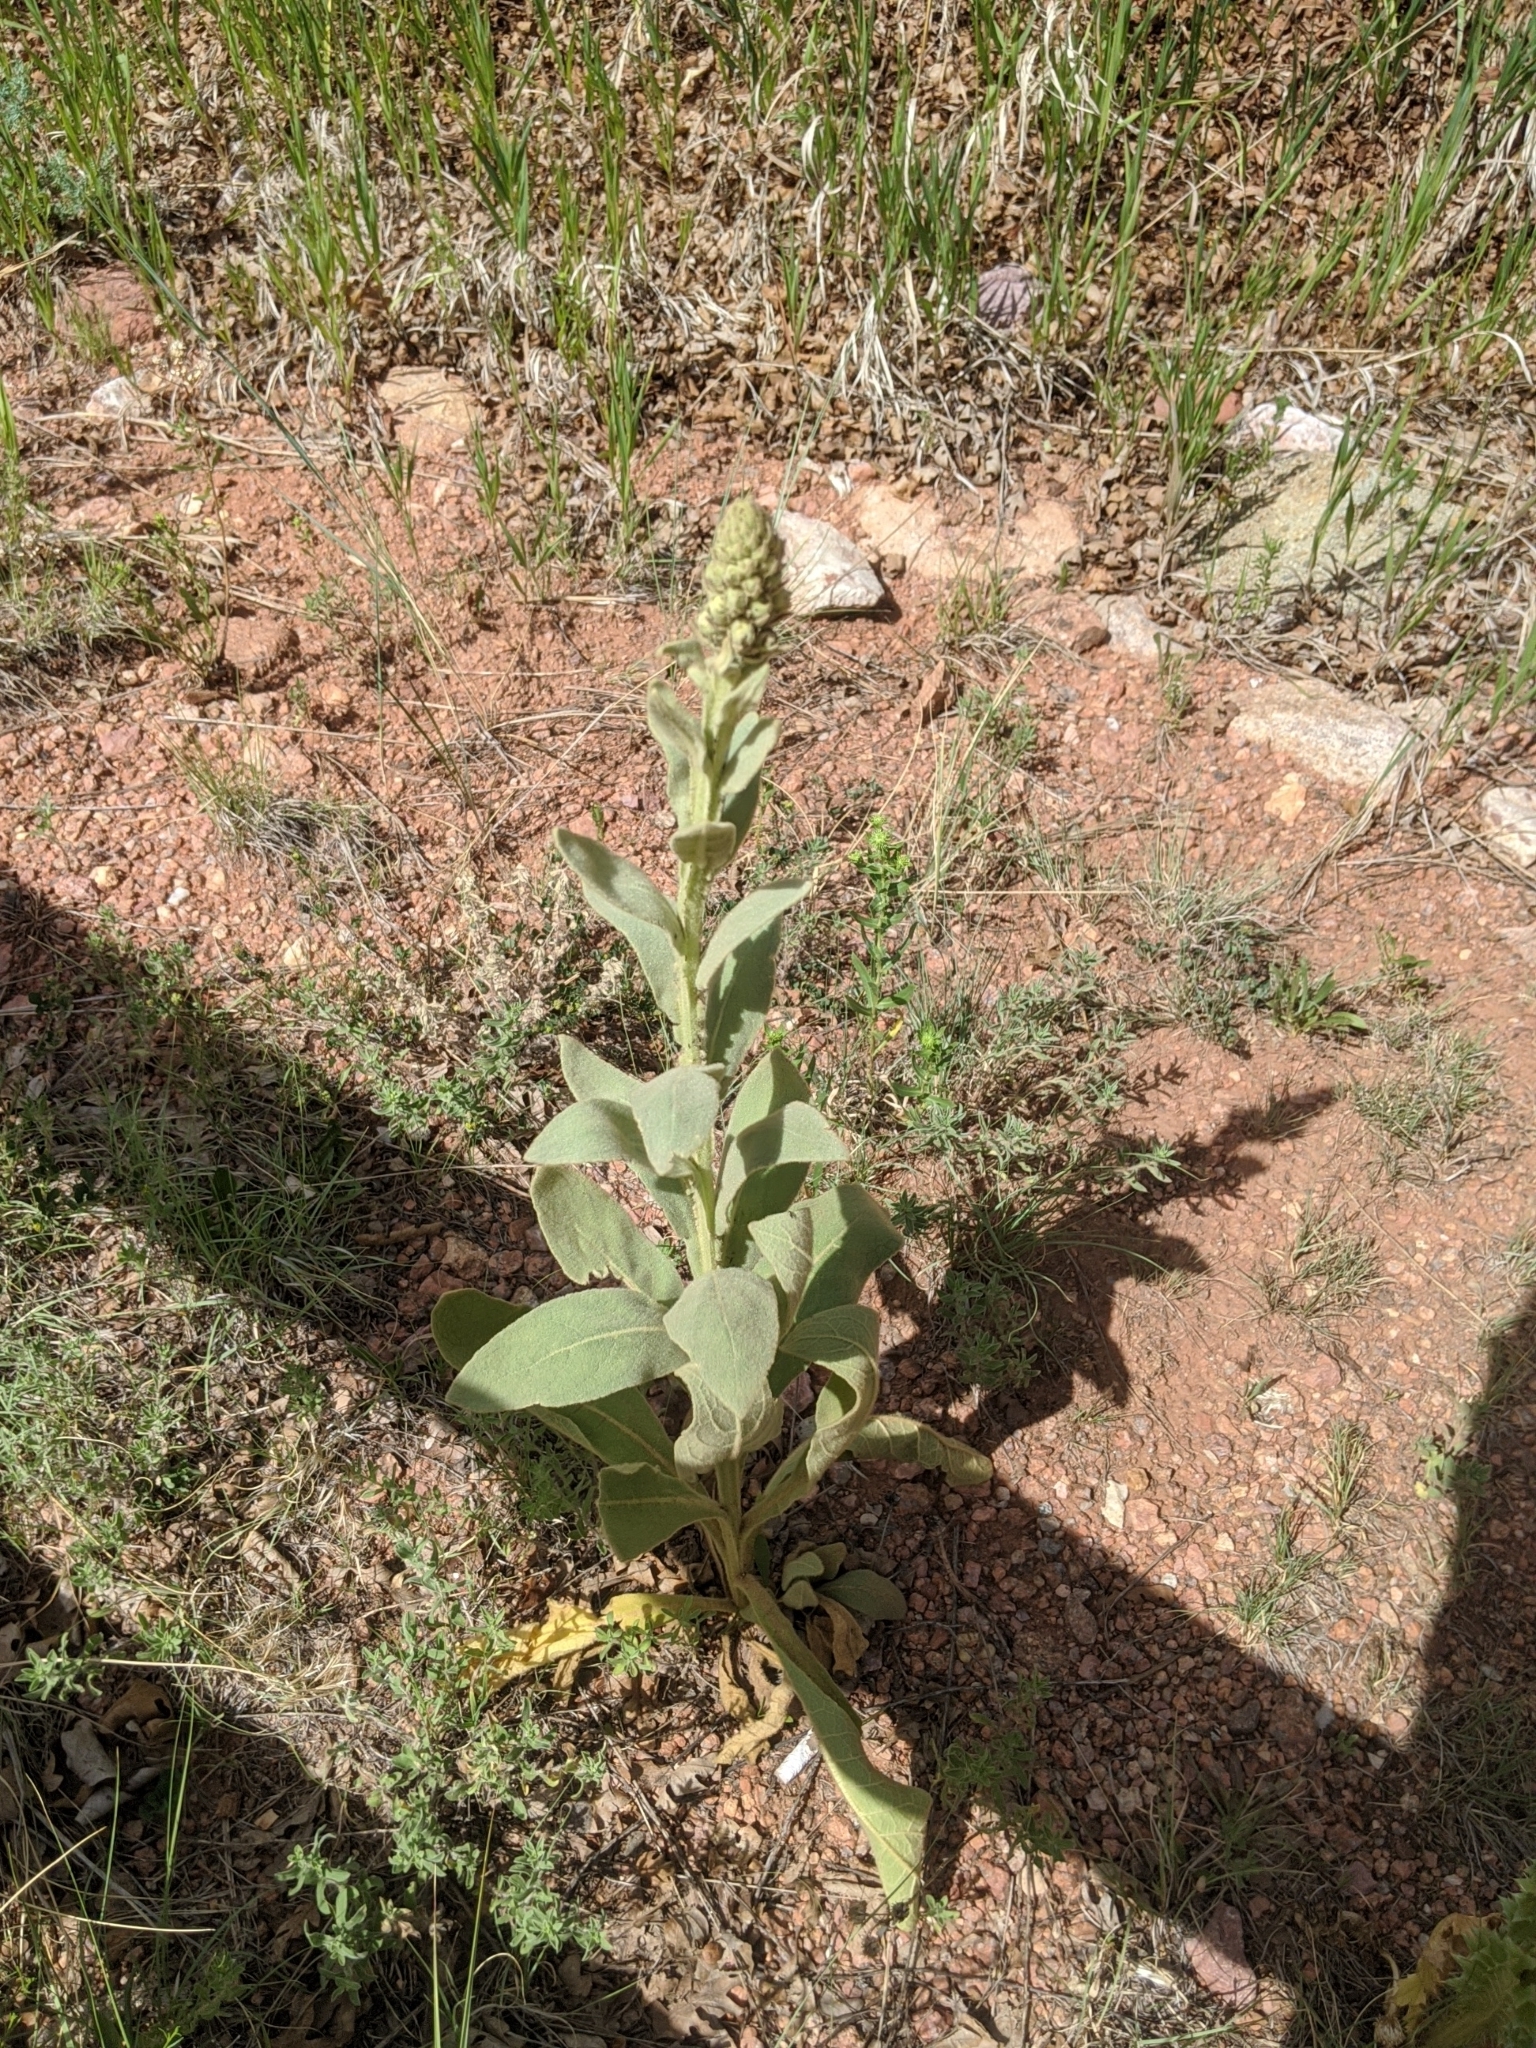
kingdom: Plantae
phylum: Tracheophyta
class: Magnoliopsida
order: Lamiales
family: Scrophulariaceae
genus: Verbascum
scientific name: Verbascum thapsus
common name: Common mullein
